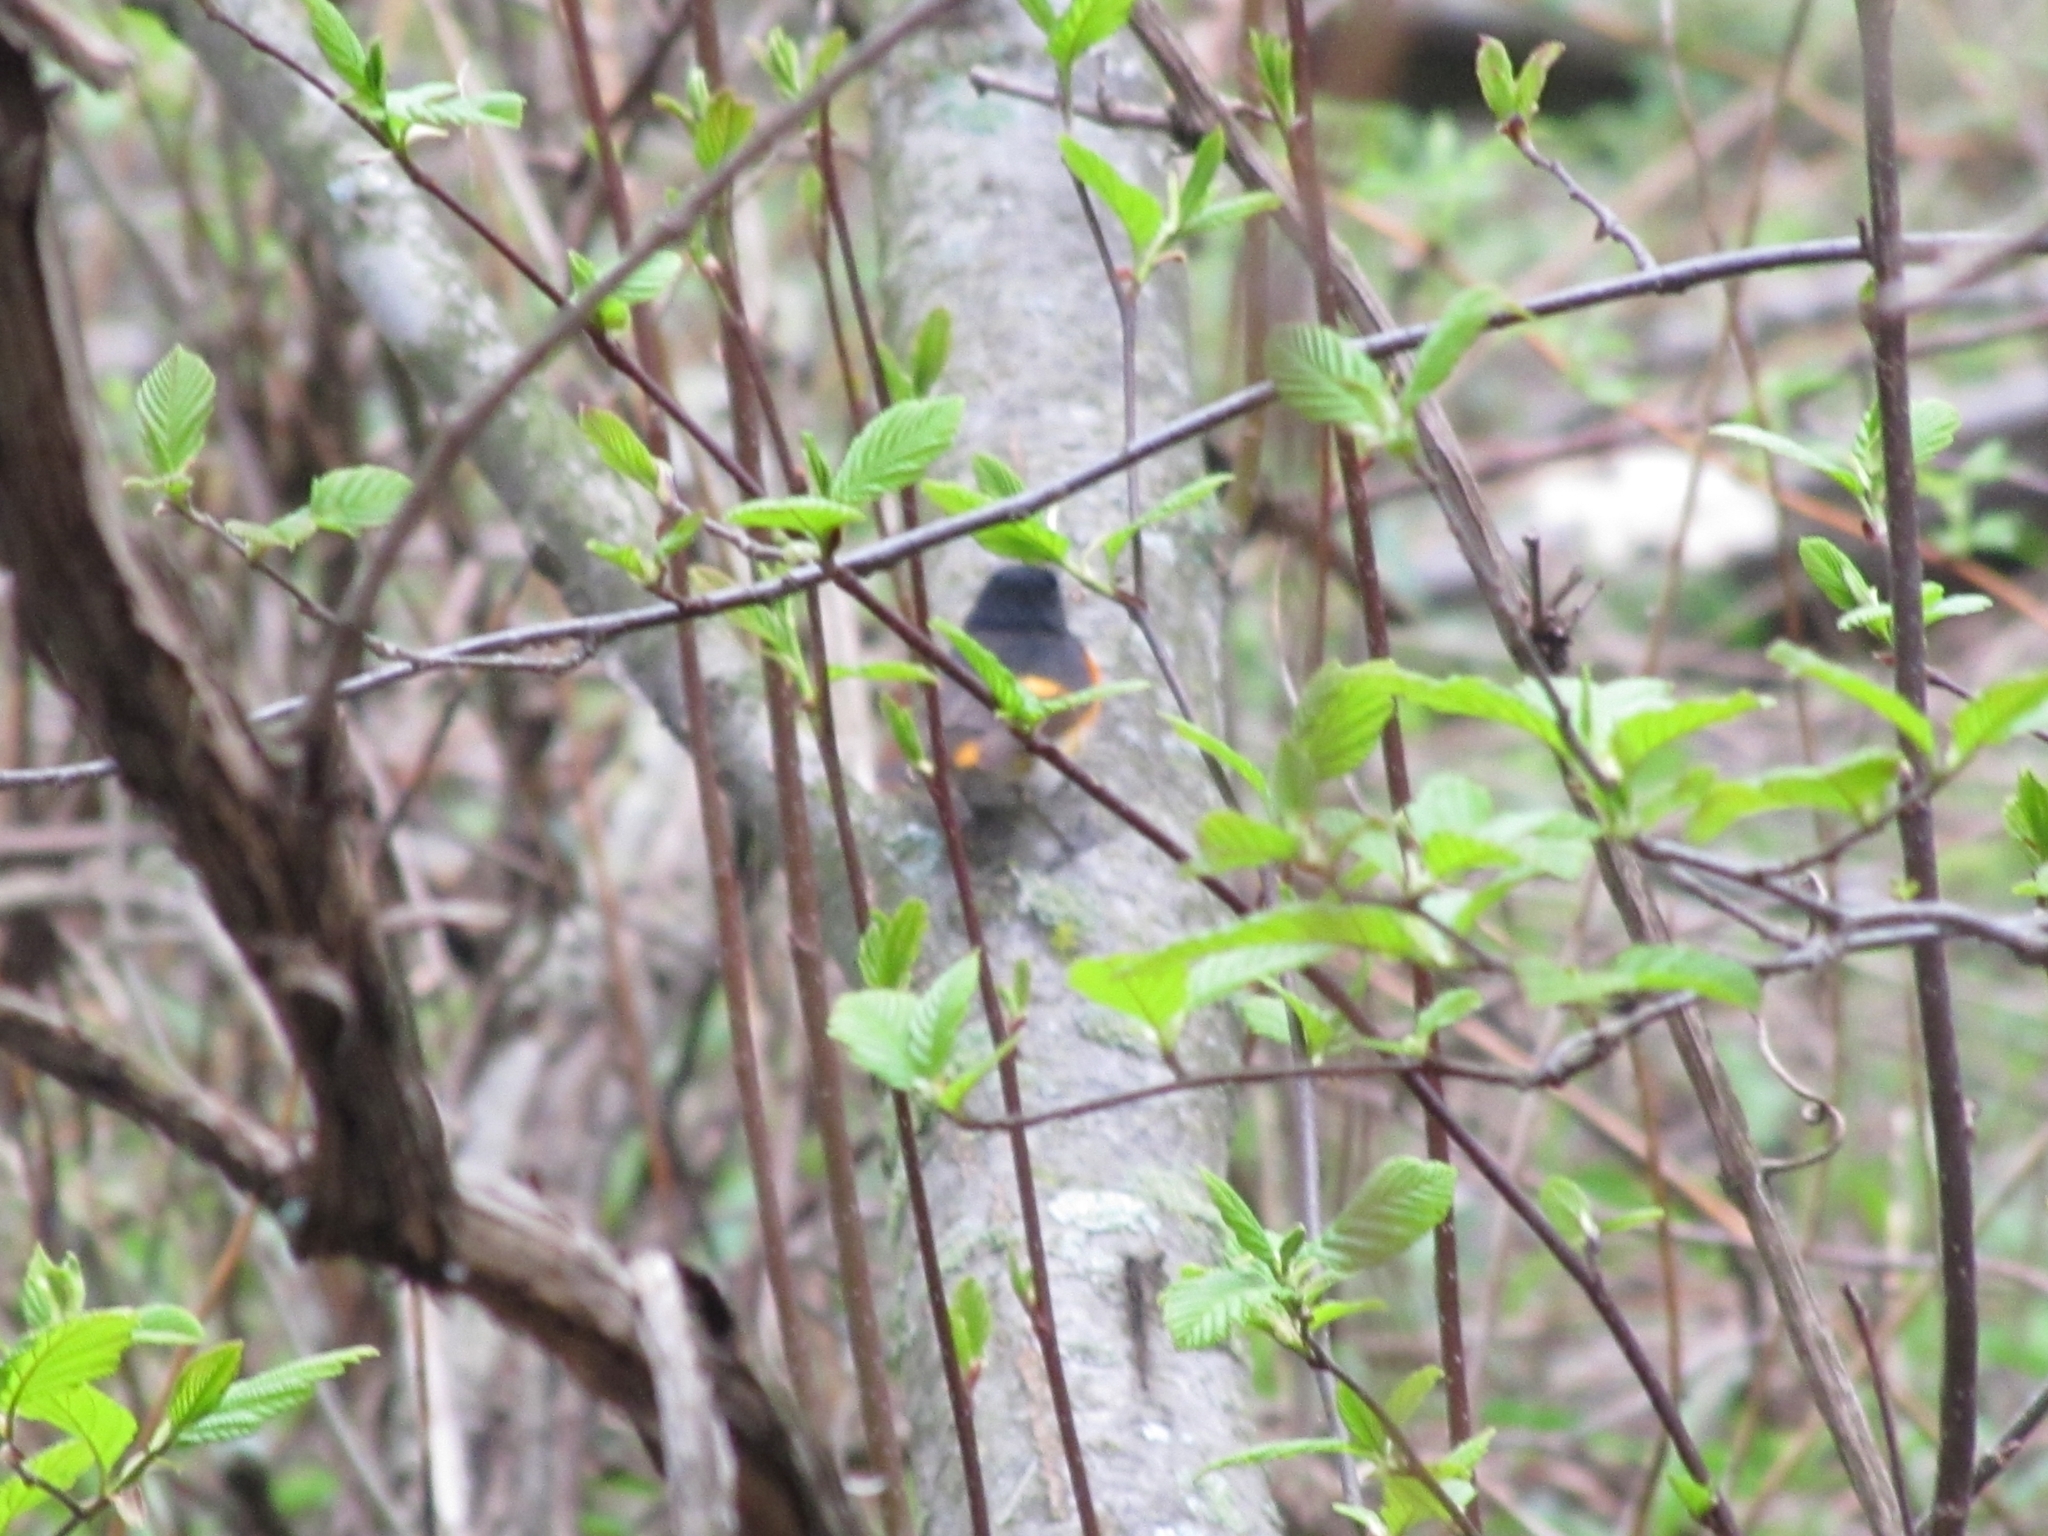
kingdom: Animalia
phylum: Chordata
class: Aves
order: Passeriformes
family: Parulidae
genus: Setophaga
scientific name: Setophaga ruticilla
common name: American redstart
